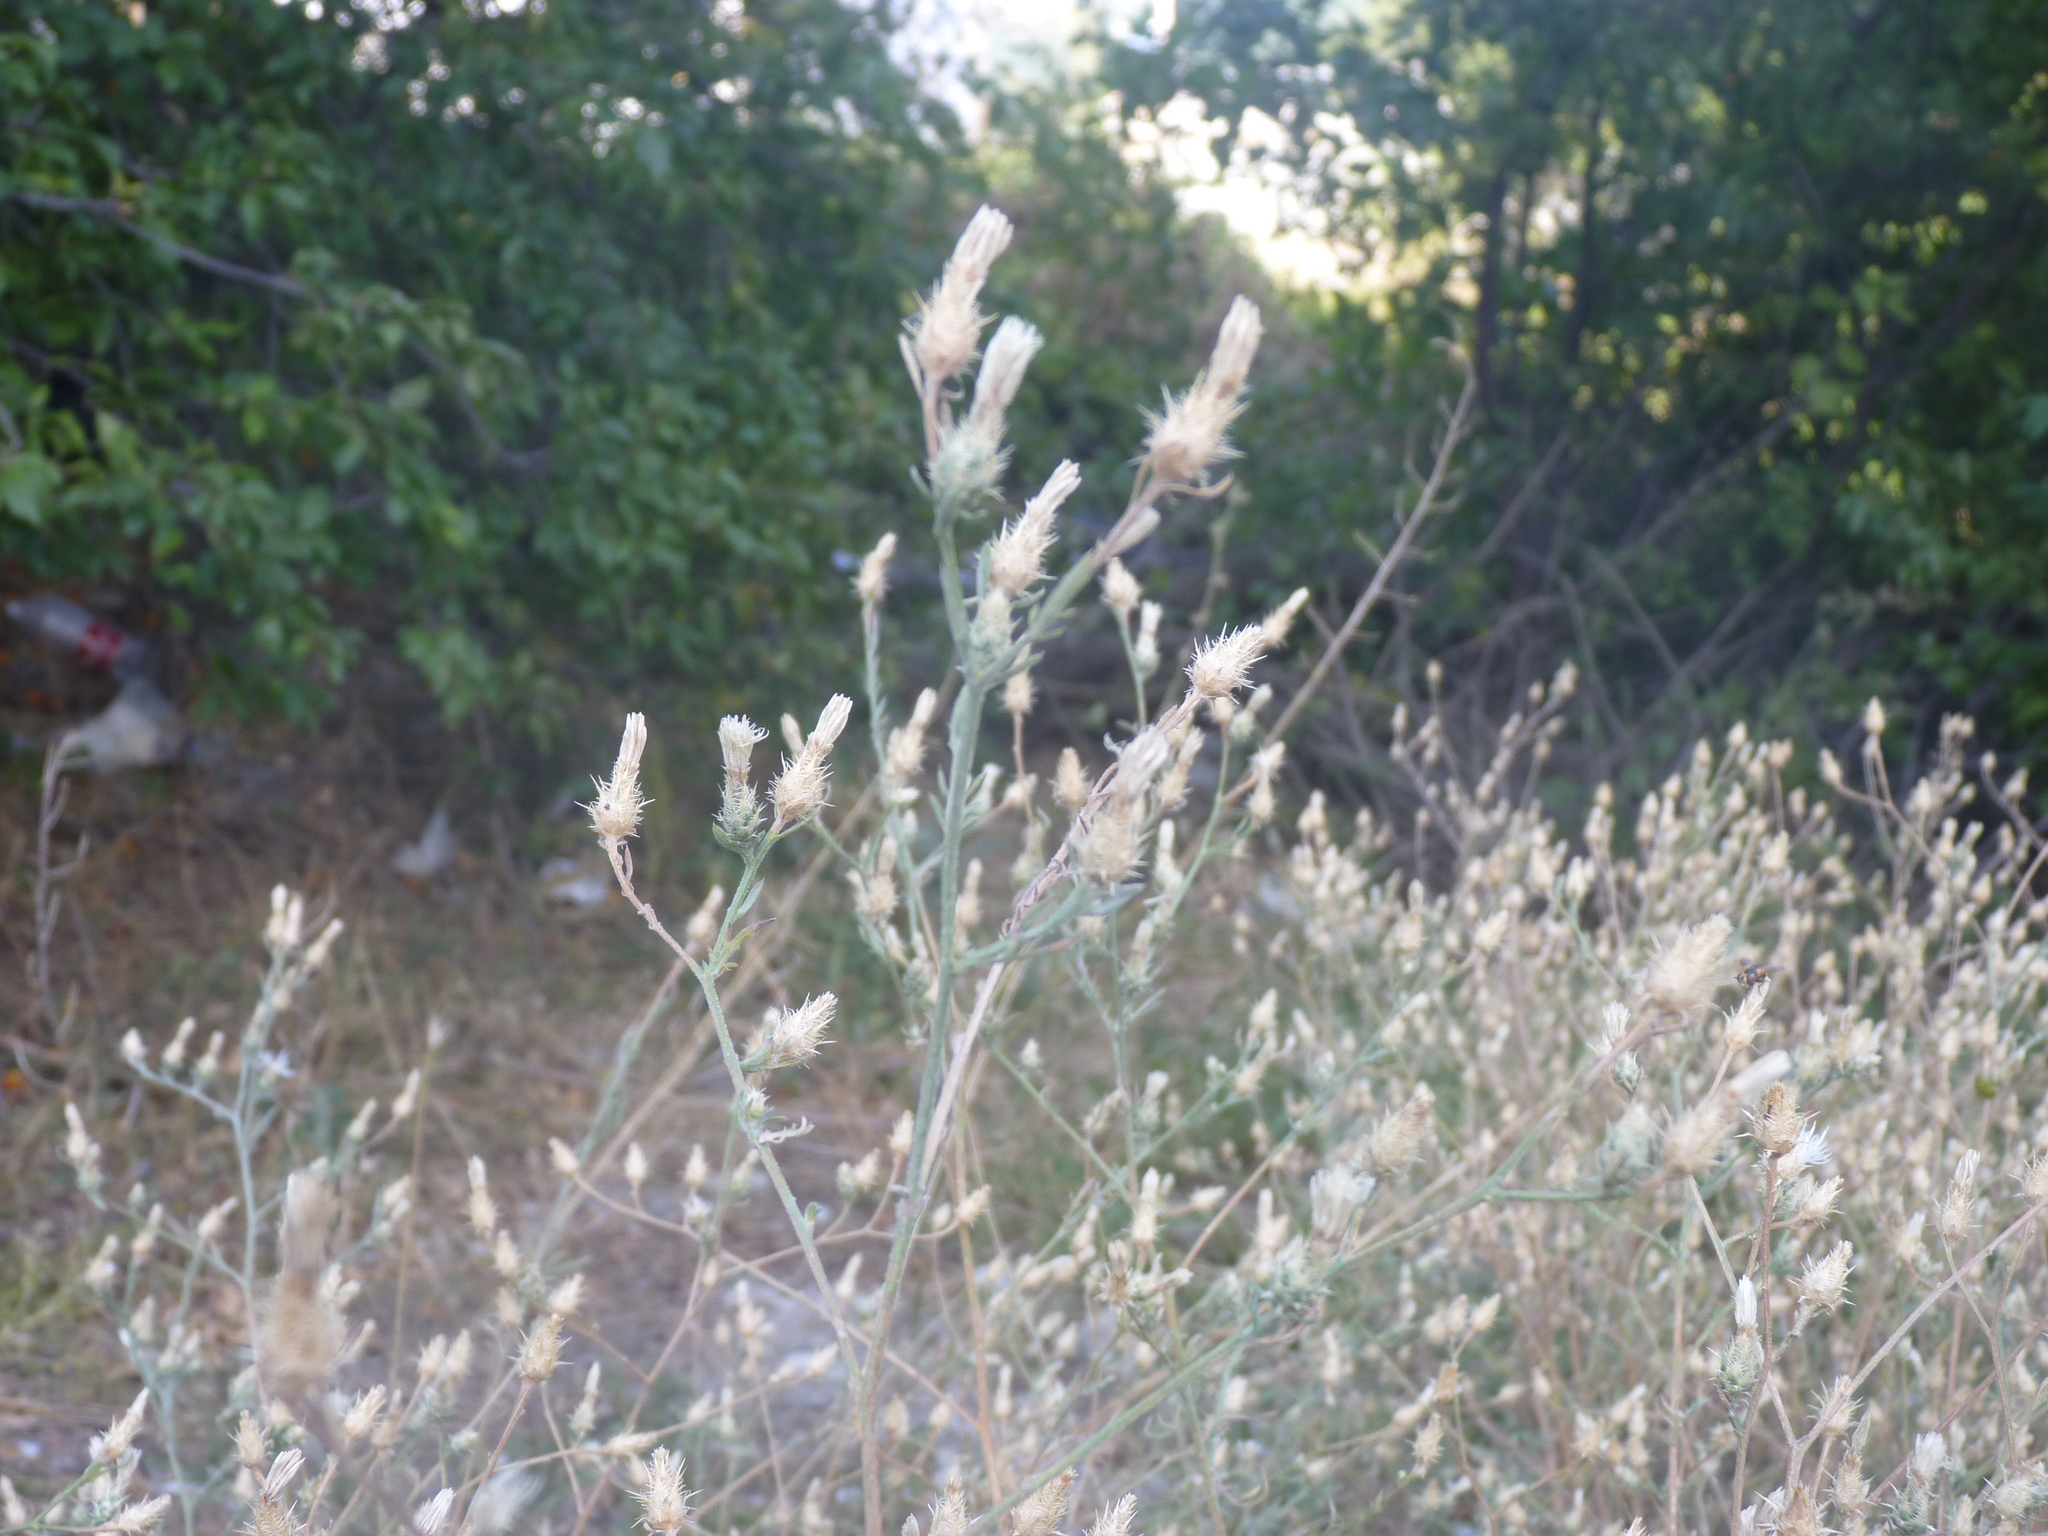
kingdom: Plantae
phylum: Tracheophyta
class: Magnoliopsida
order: Asterales
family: Asteraceae
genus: Centaurea
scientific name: Centaurea diffusa
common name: Diffuse knapweed
